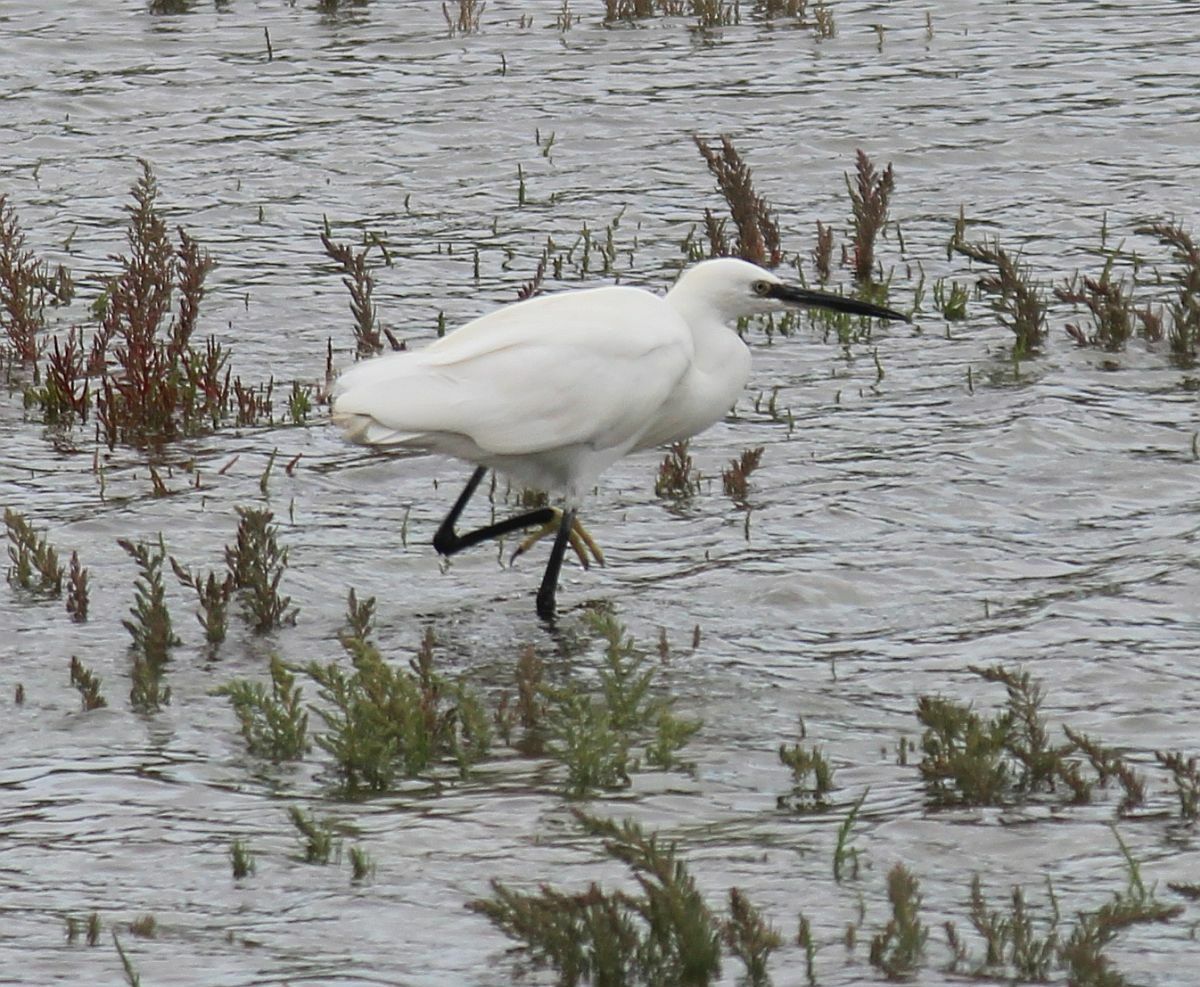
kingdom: Animalia
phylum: Chordata
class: Aves
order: Pelecaniformes
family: Ardeidae
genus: Egretta
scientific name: Egretta garzetta
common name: Little egret
